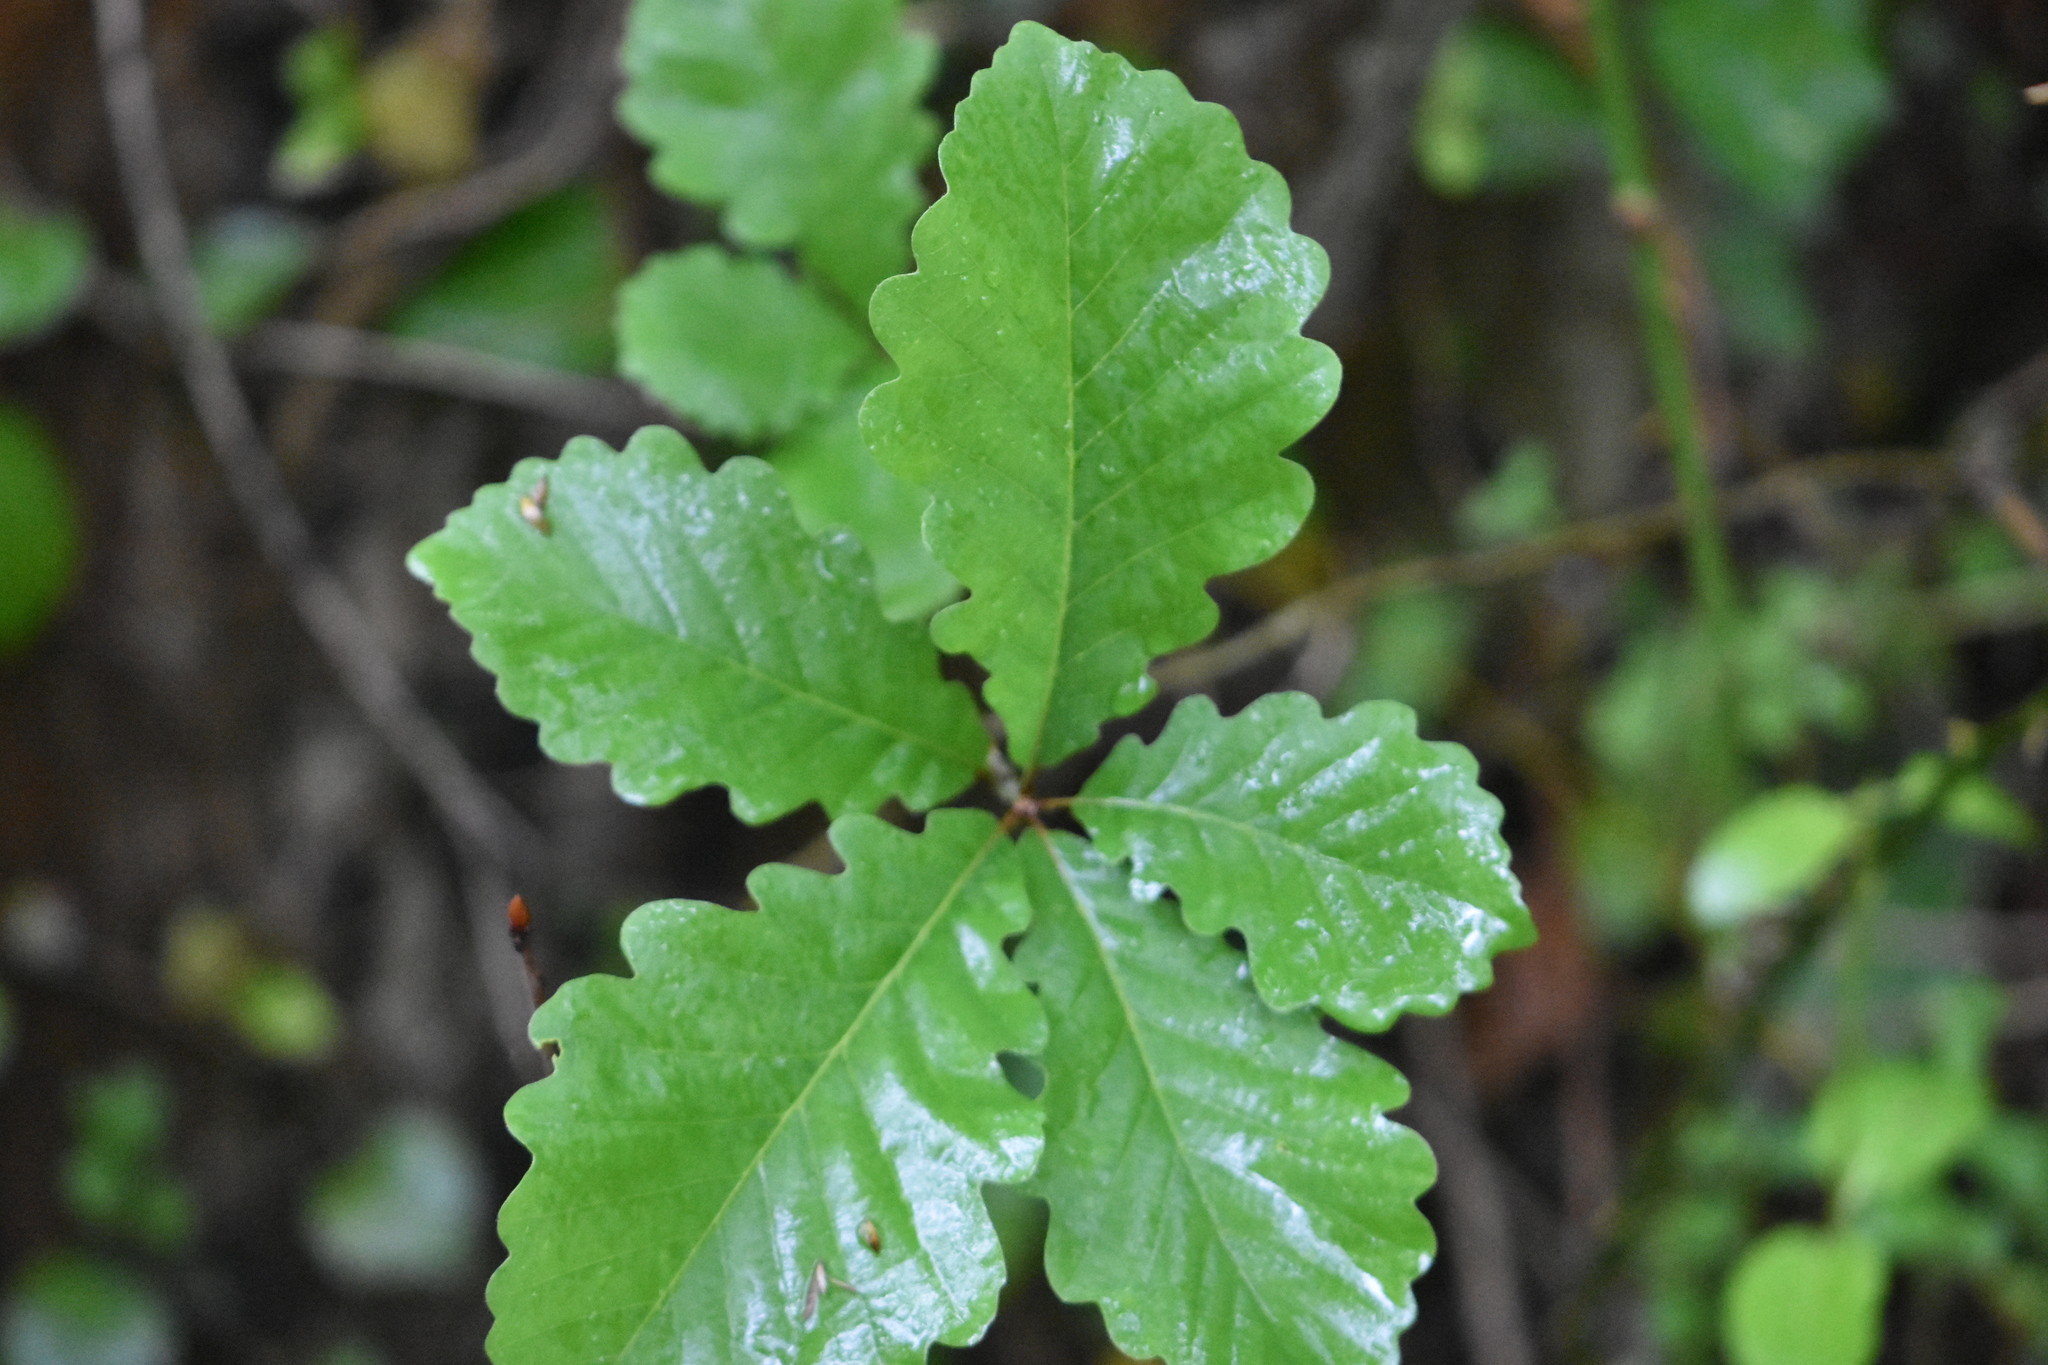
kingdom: Plantae
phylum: Tracheophyta
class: Magnoliopsida
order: Fagales
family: Fagaceae
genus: Quercus
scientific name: Quercus robur
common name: Pedunculate oak
